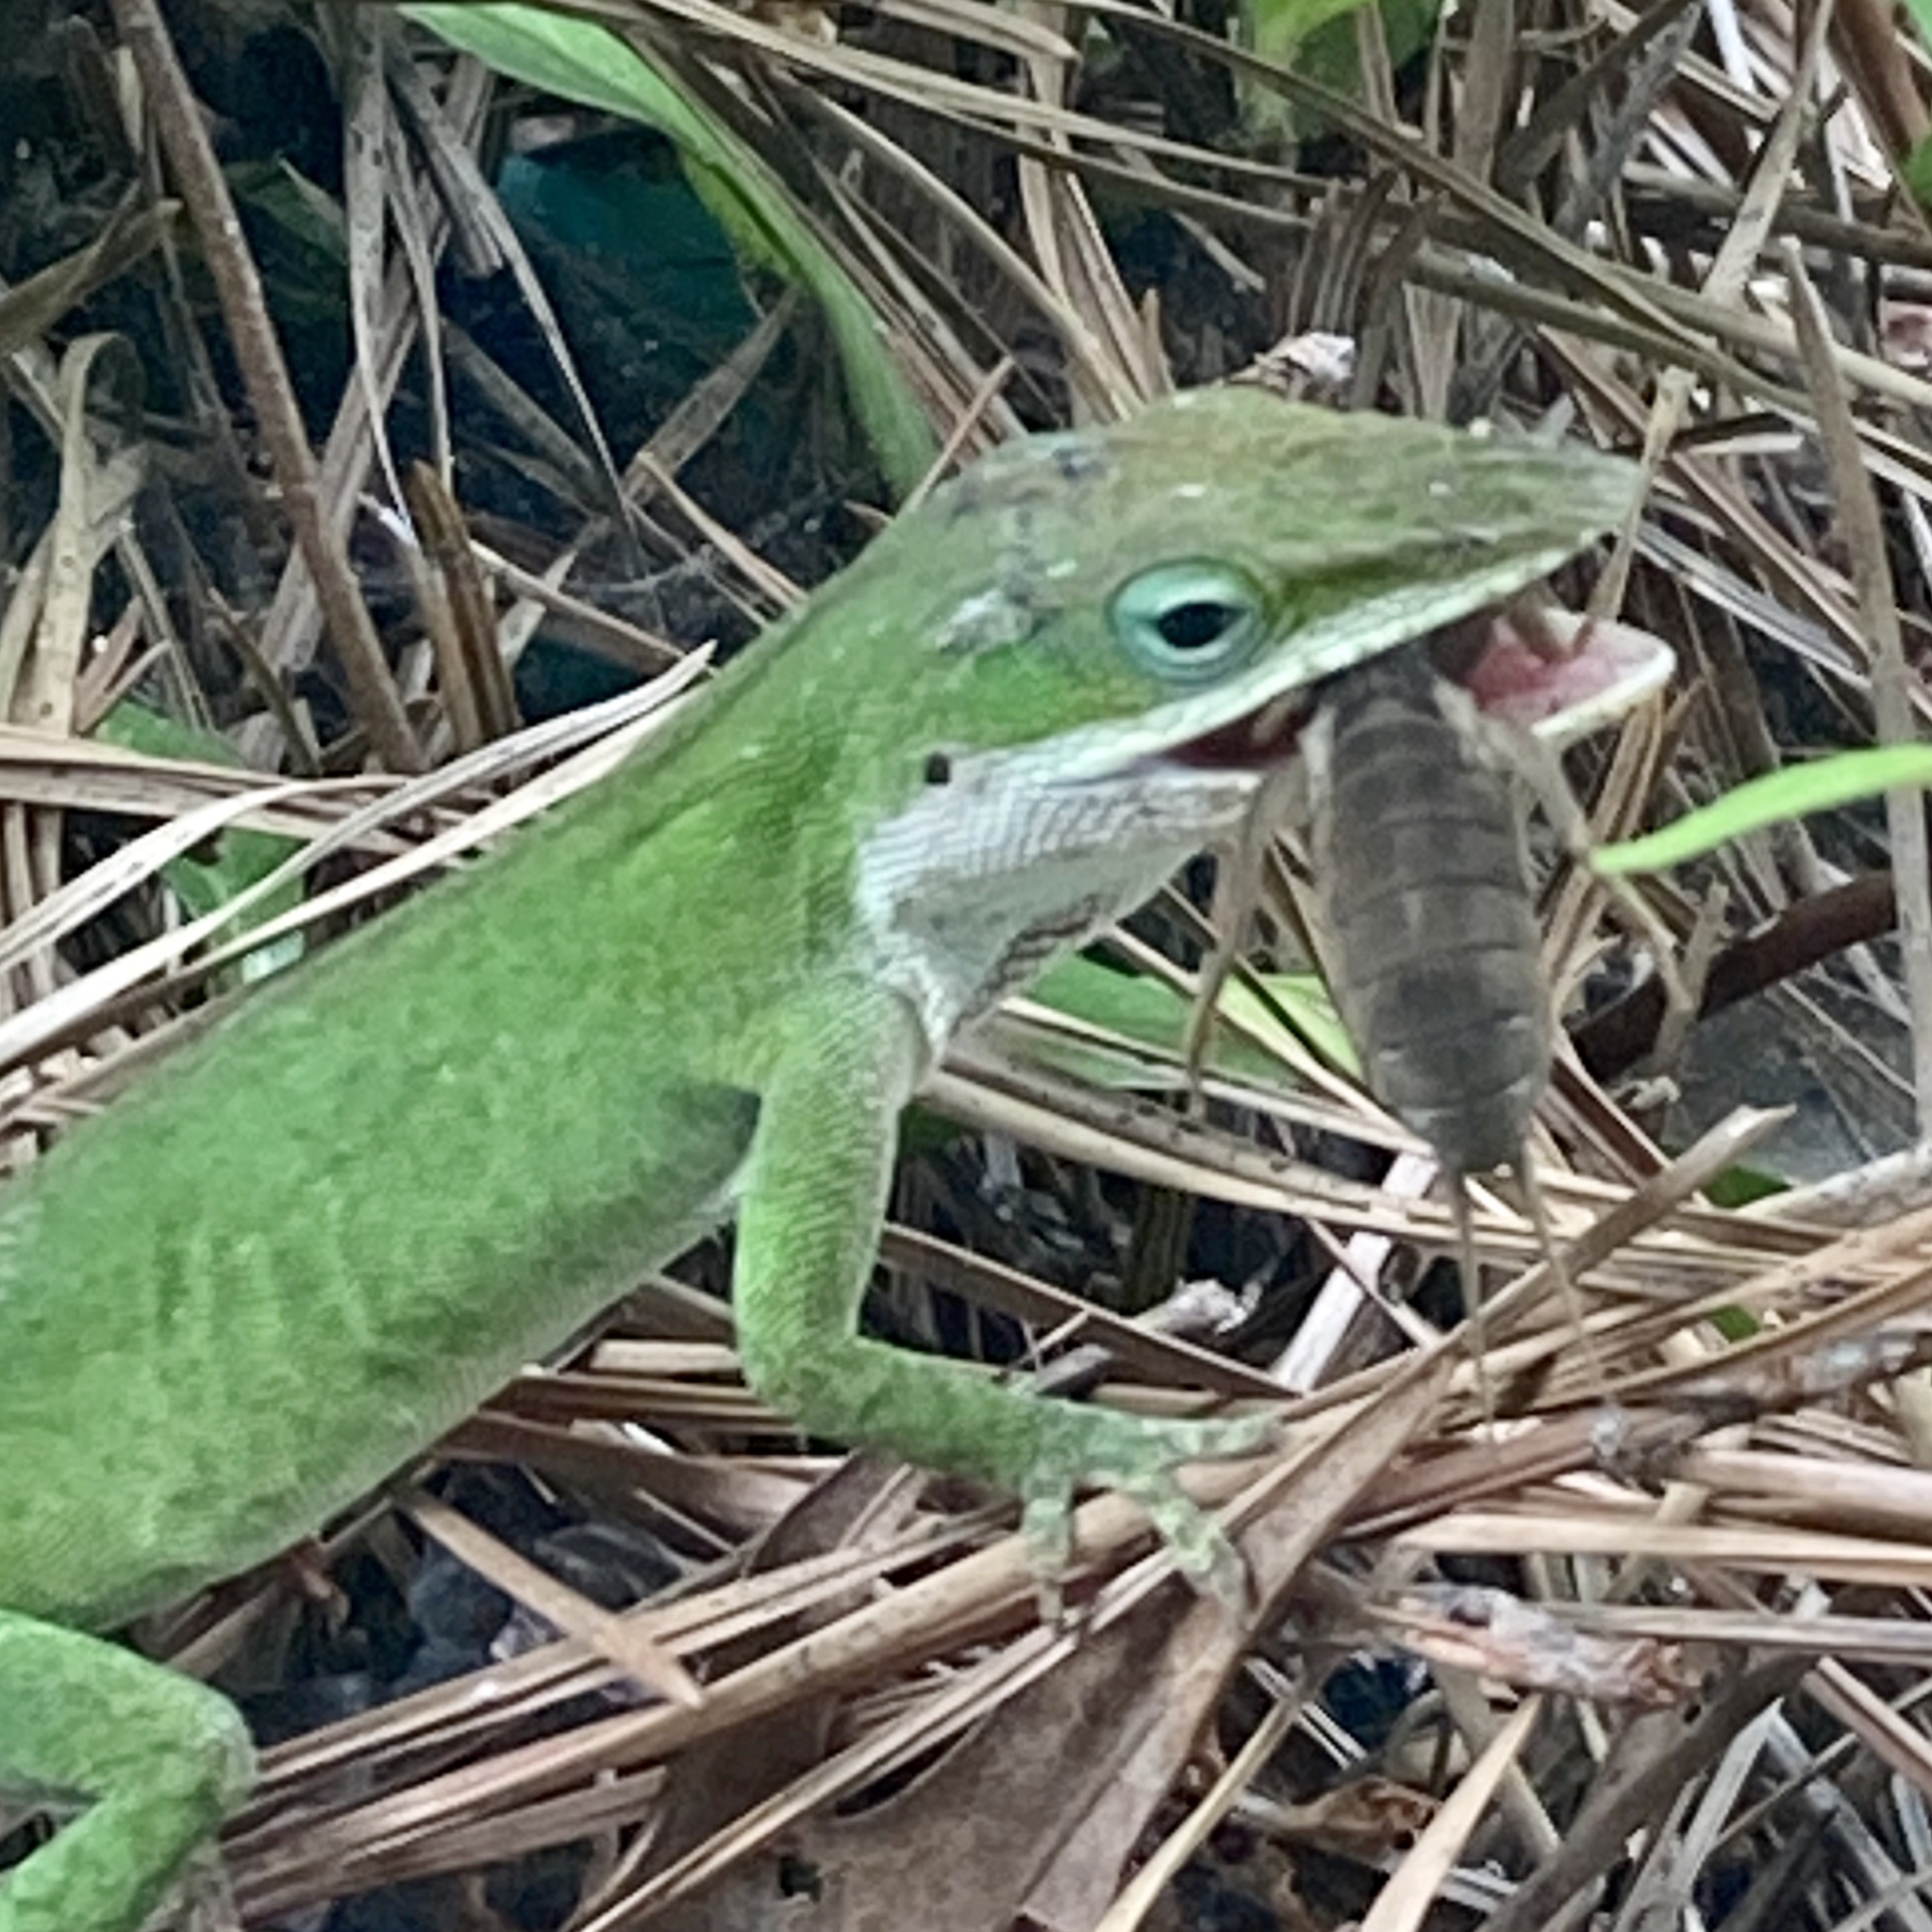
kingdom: Animalia
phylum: Chordata
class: Squamata
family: Dactyloidae
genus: Anolis
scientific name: Anolis carolinensis
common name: Green anole
